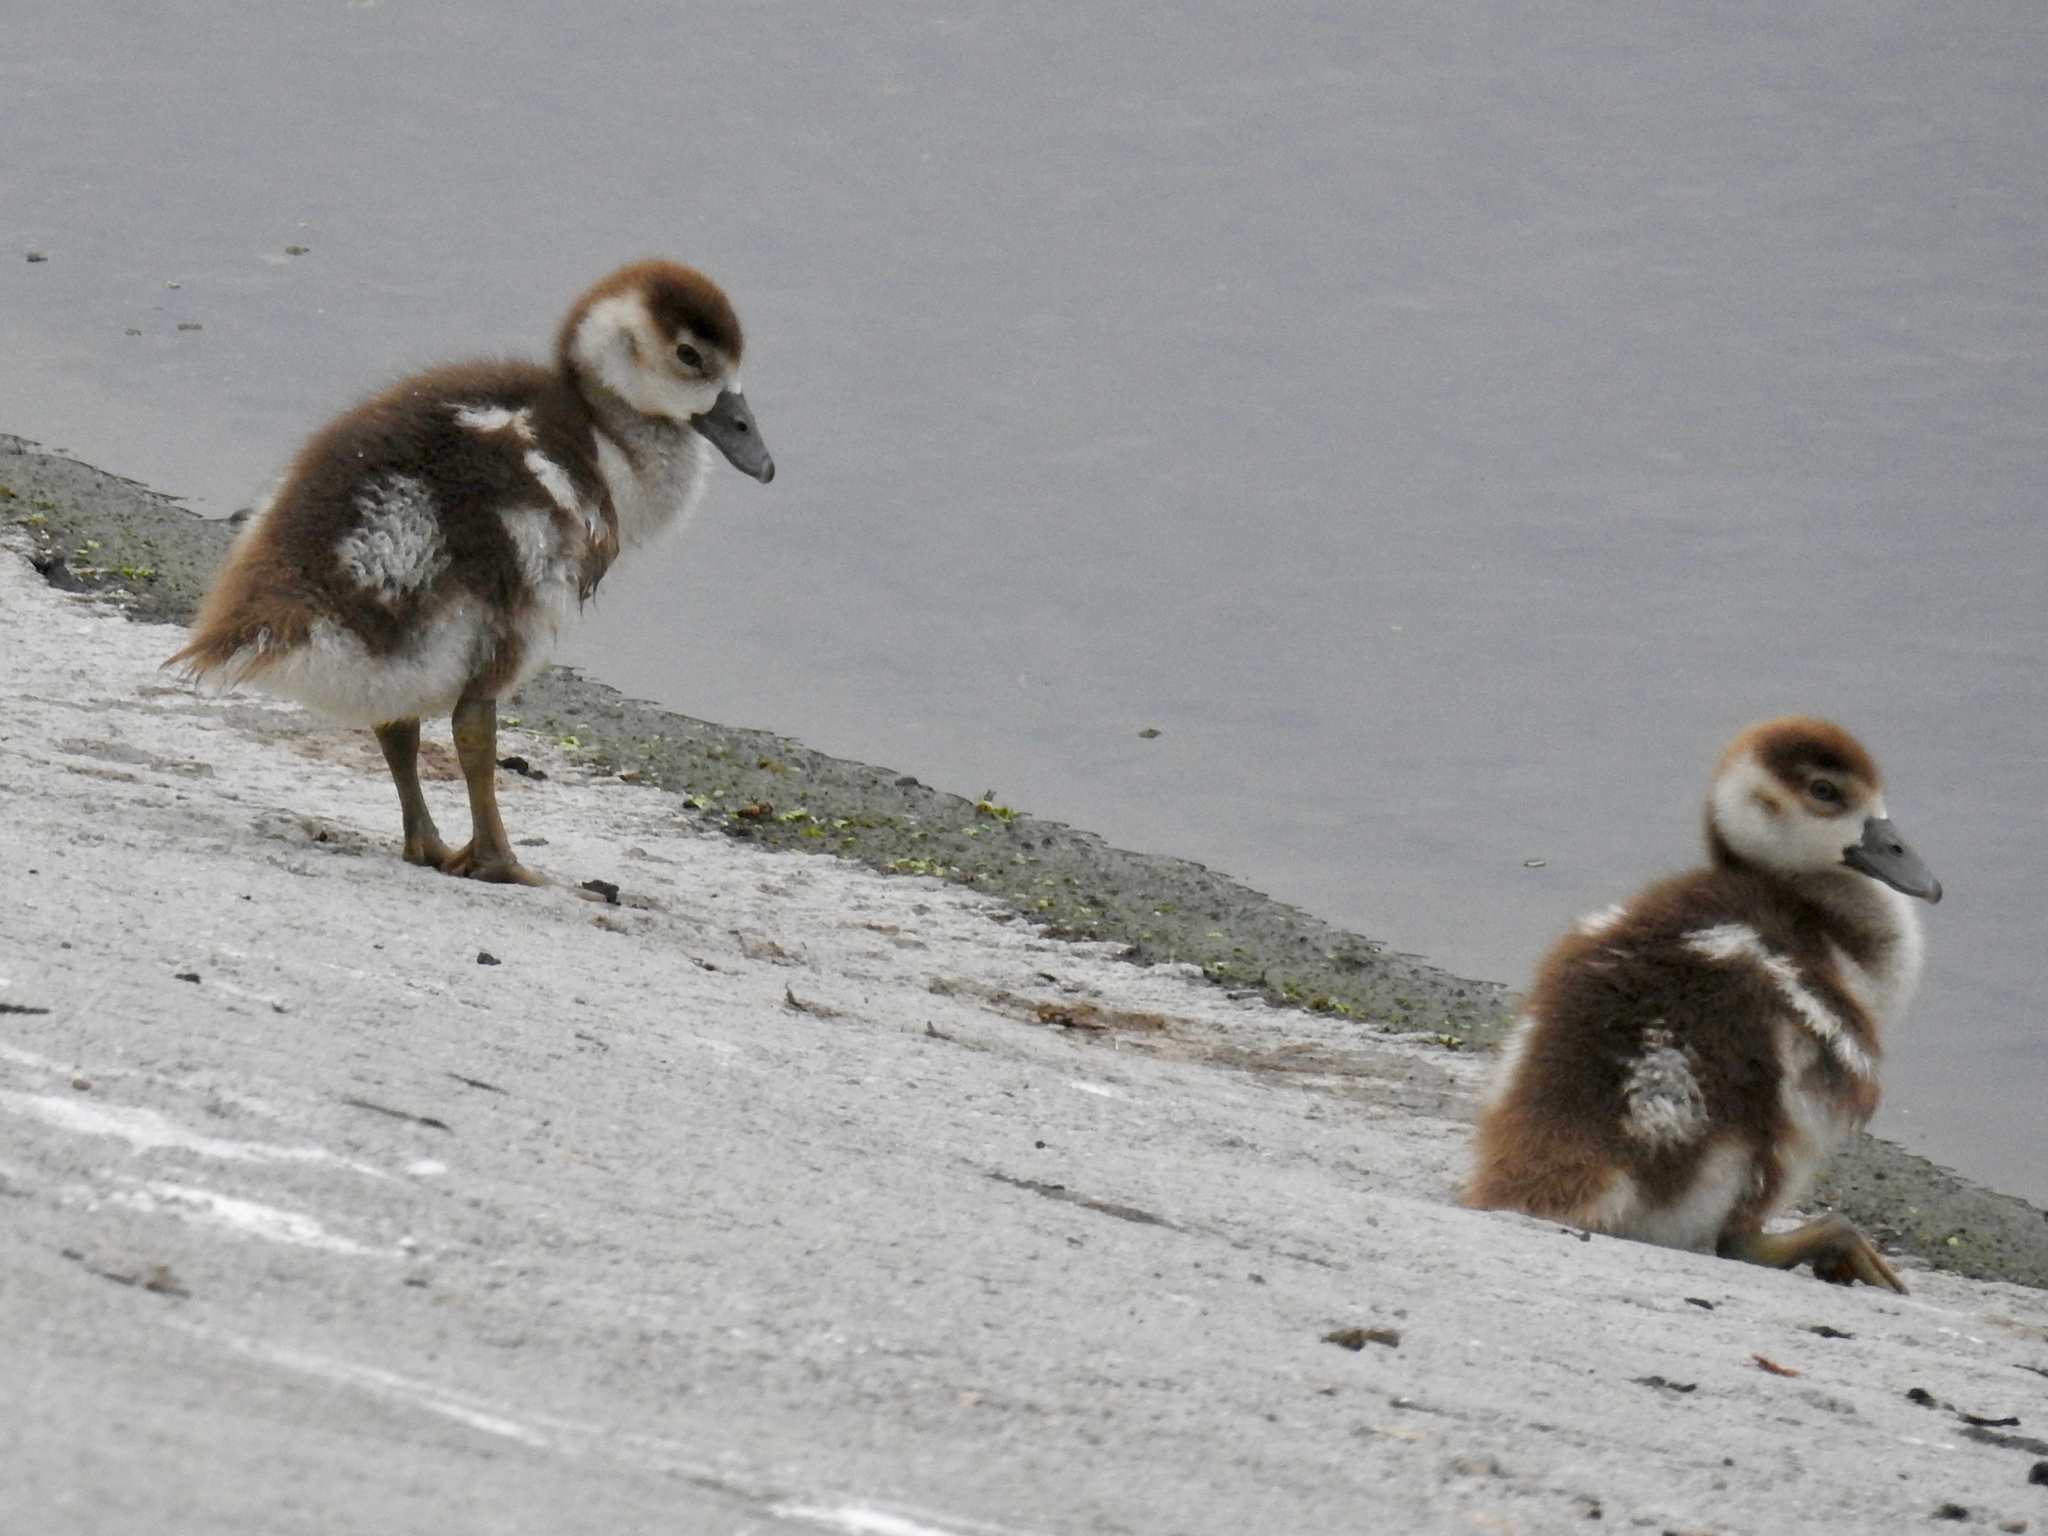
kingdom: Animalia
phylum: Chordata
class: Aves
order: Anseriformes
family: Anatidae
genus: Alopochen
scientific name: Alopochen aegyptiaca
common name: Egyptian goose
